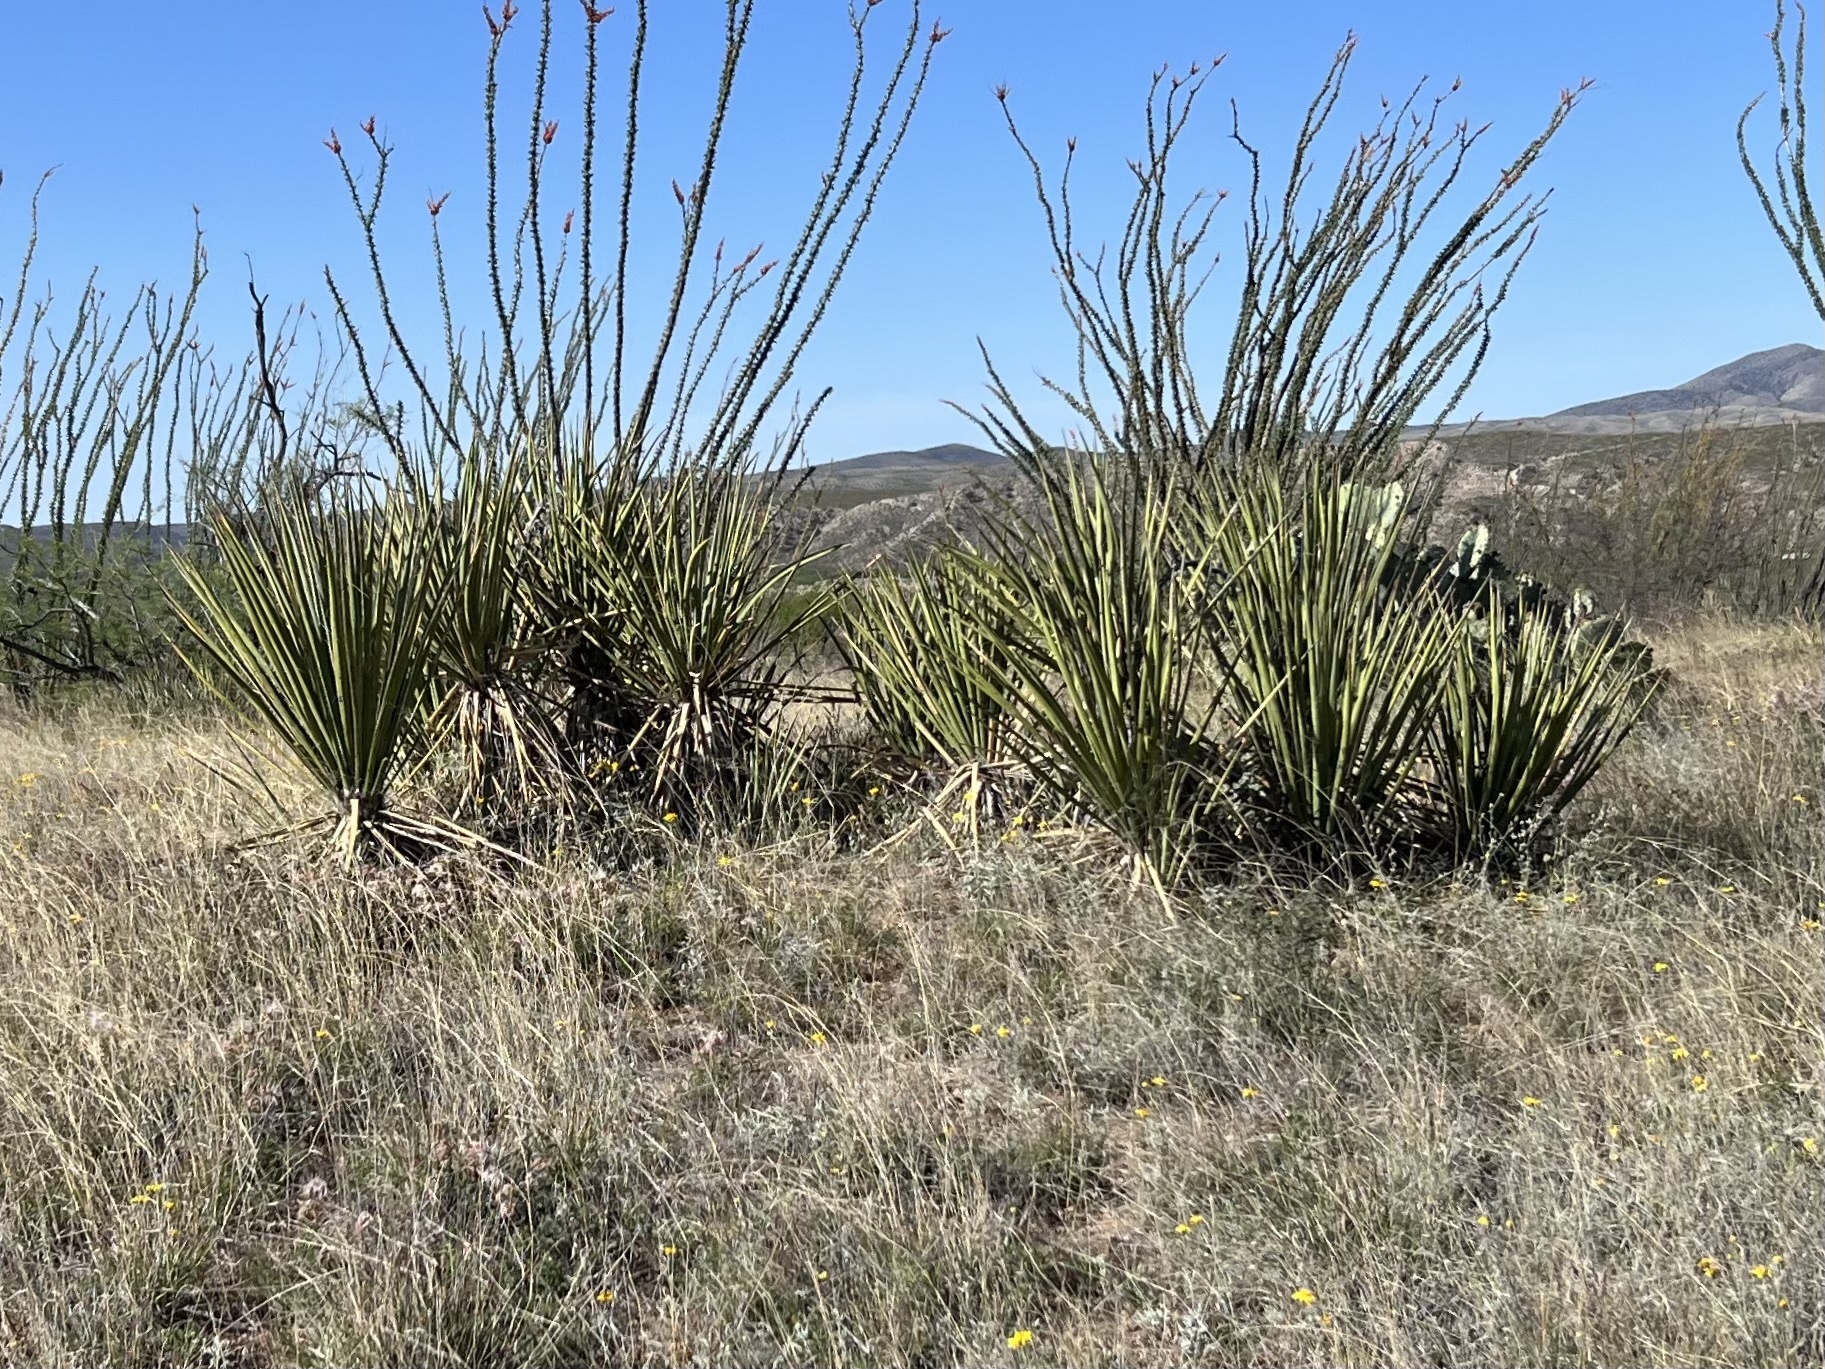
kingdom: Plantae
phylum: Tracheophyta
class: Liliopsida
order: Asparagales
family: Asparagaceae
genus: Yucca
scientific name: Yucca baccata
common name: Banana yucca
